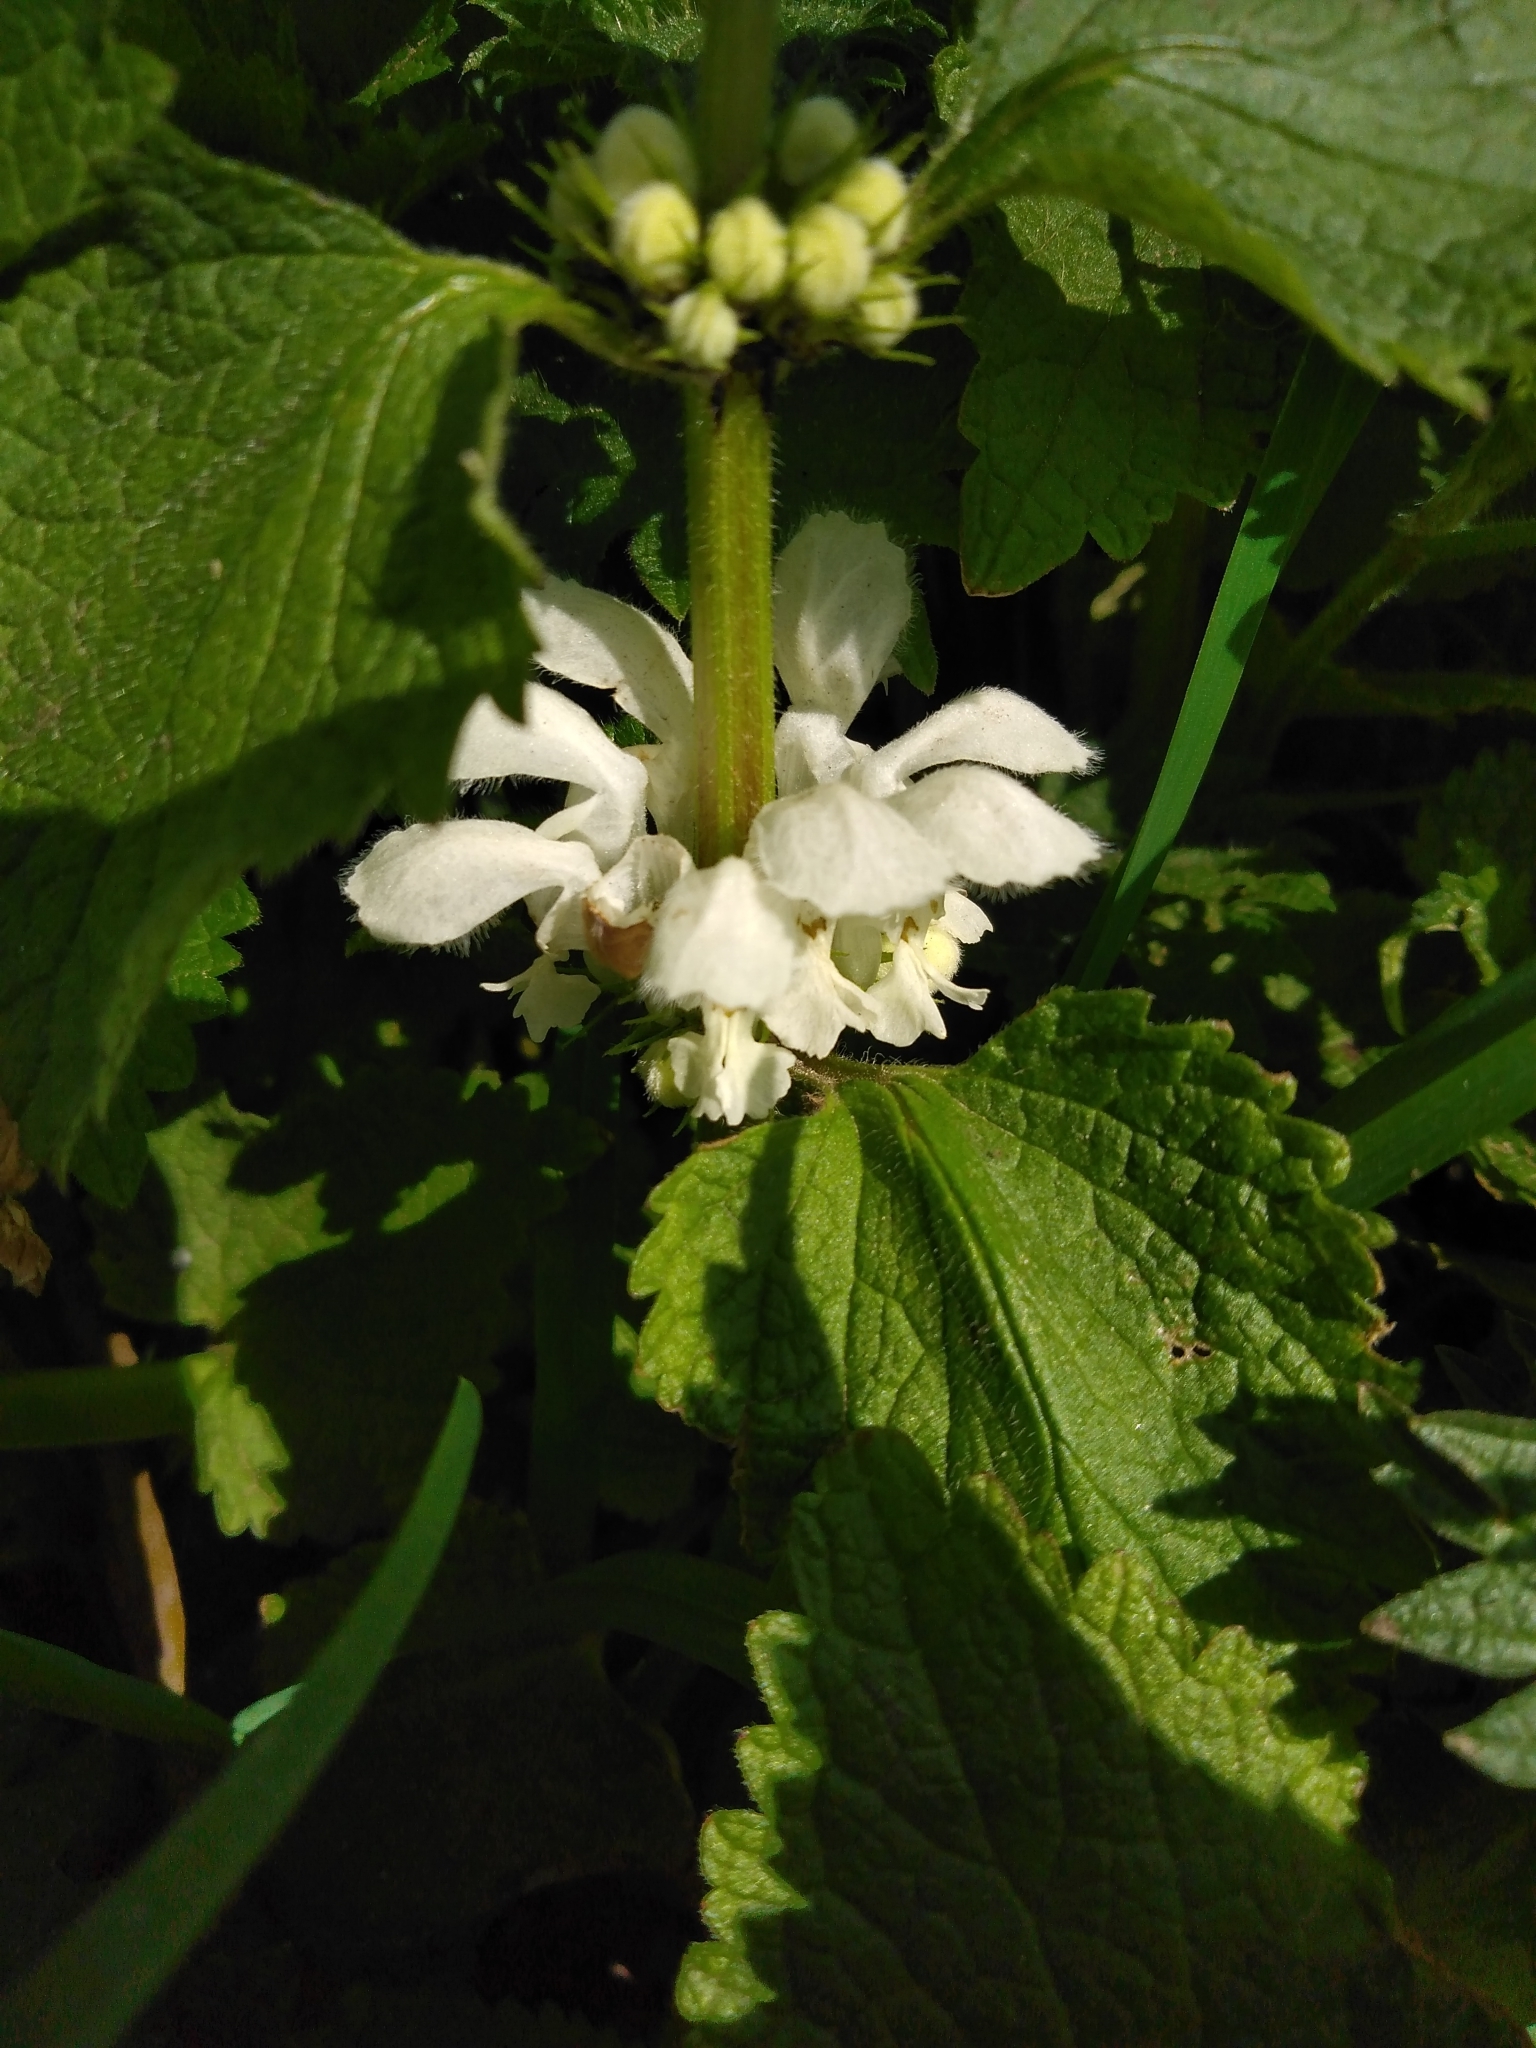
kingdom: Plantae
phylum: Tracheophyta
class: Magnoliopsida
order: Lamiales
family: Lamiaceae
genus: Lamium
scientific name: Lamium album
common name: White dead-nettle
